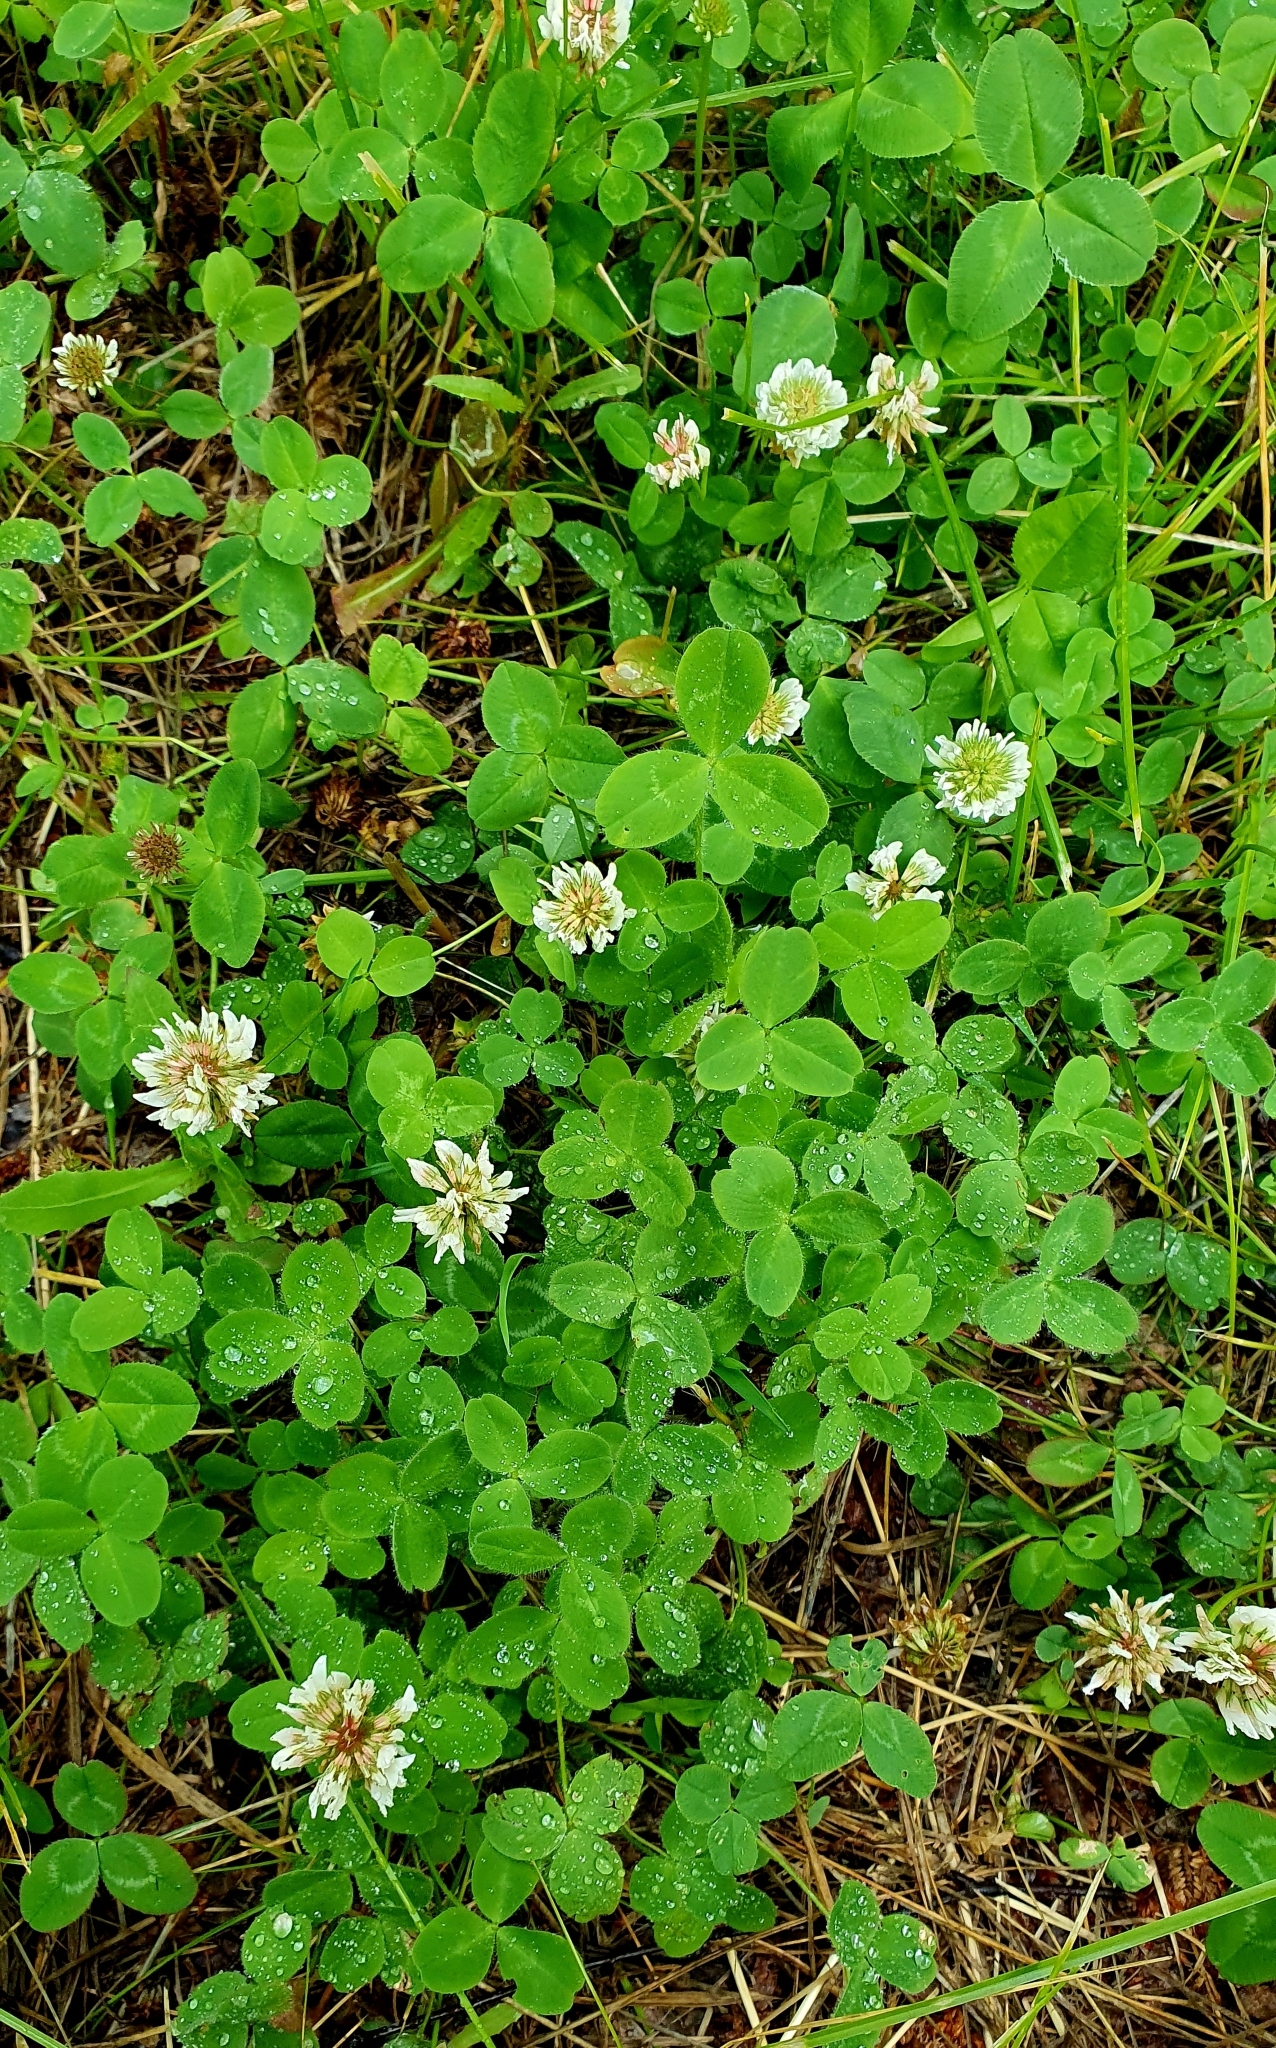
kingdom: Plantae
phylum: Tracheophyta
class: Magnoliopsida
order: Fabales
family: Fabaceae
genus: Trifolium
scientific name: Trifolium repens
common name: White clover
